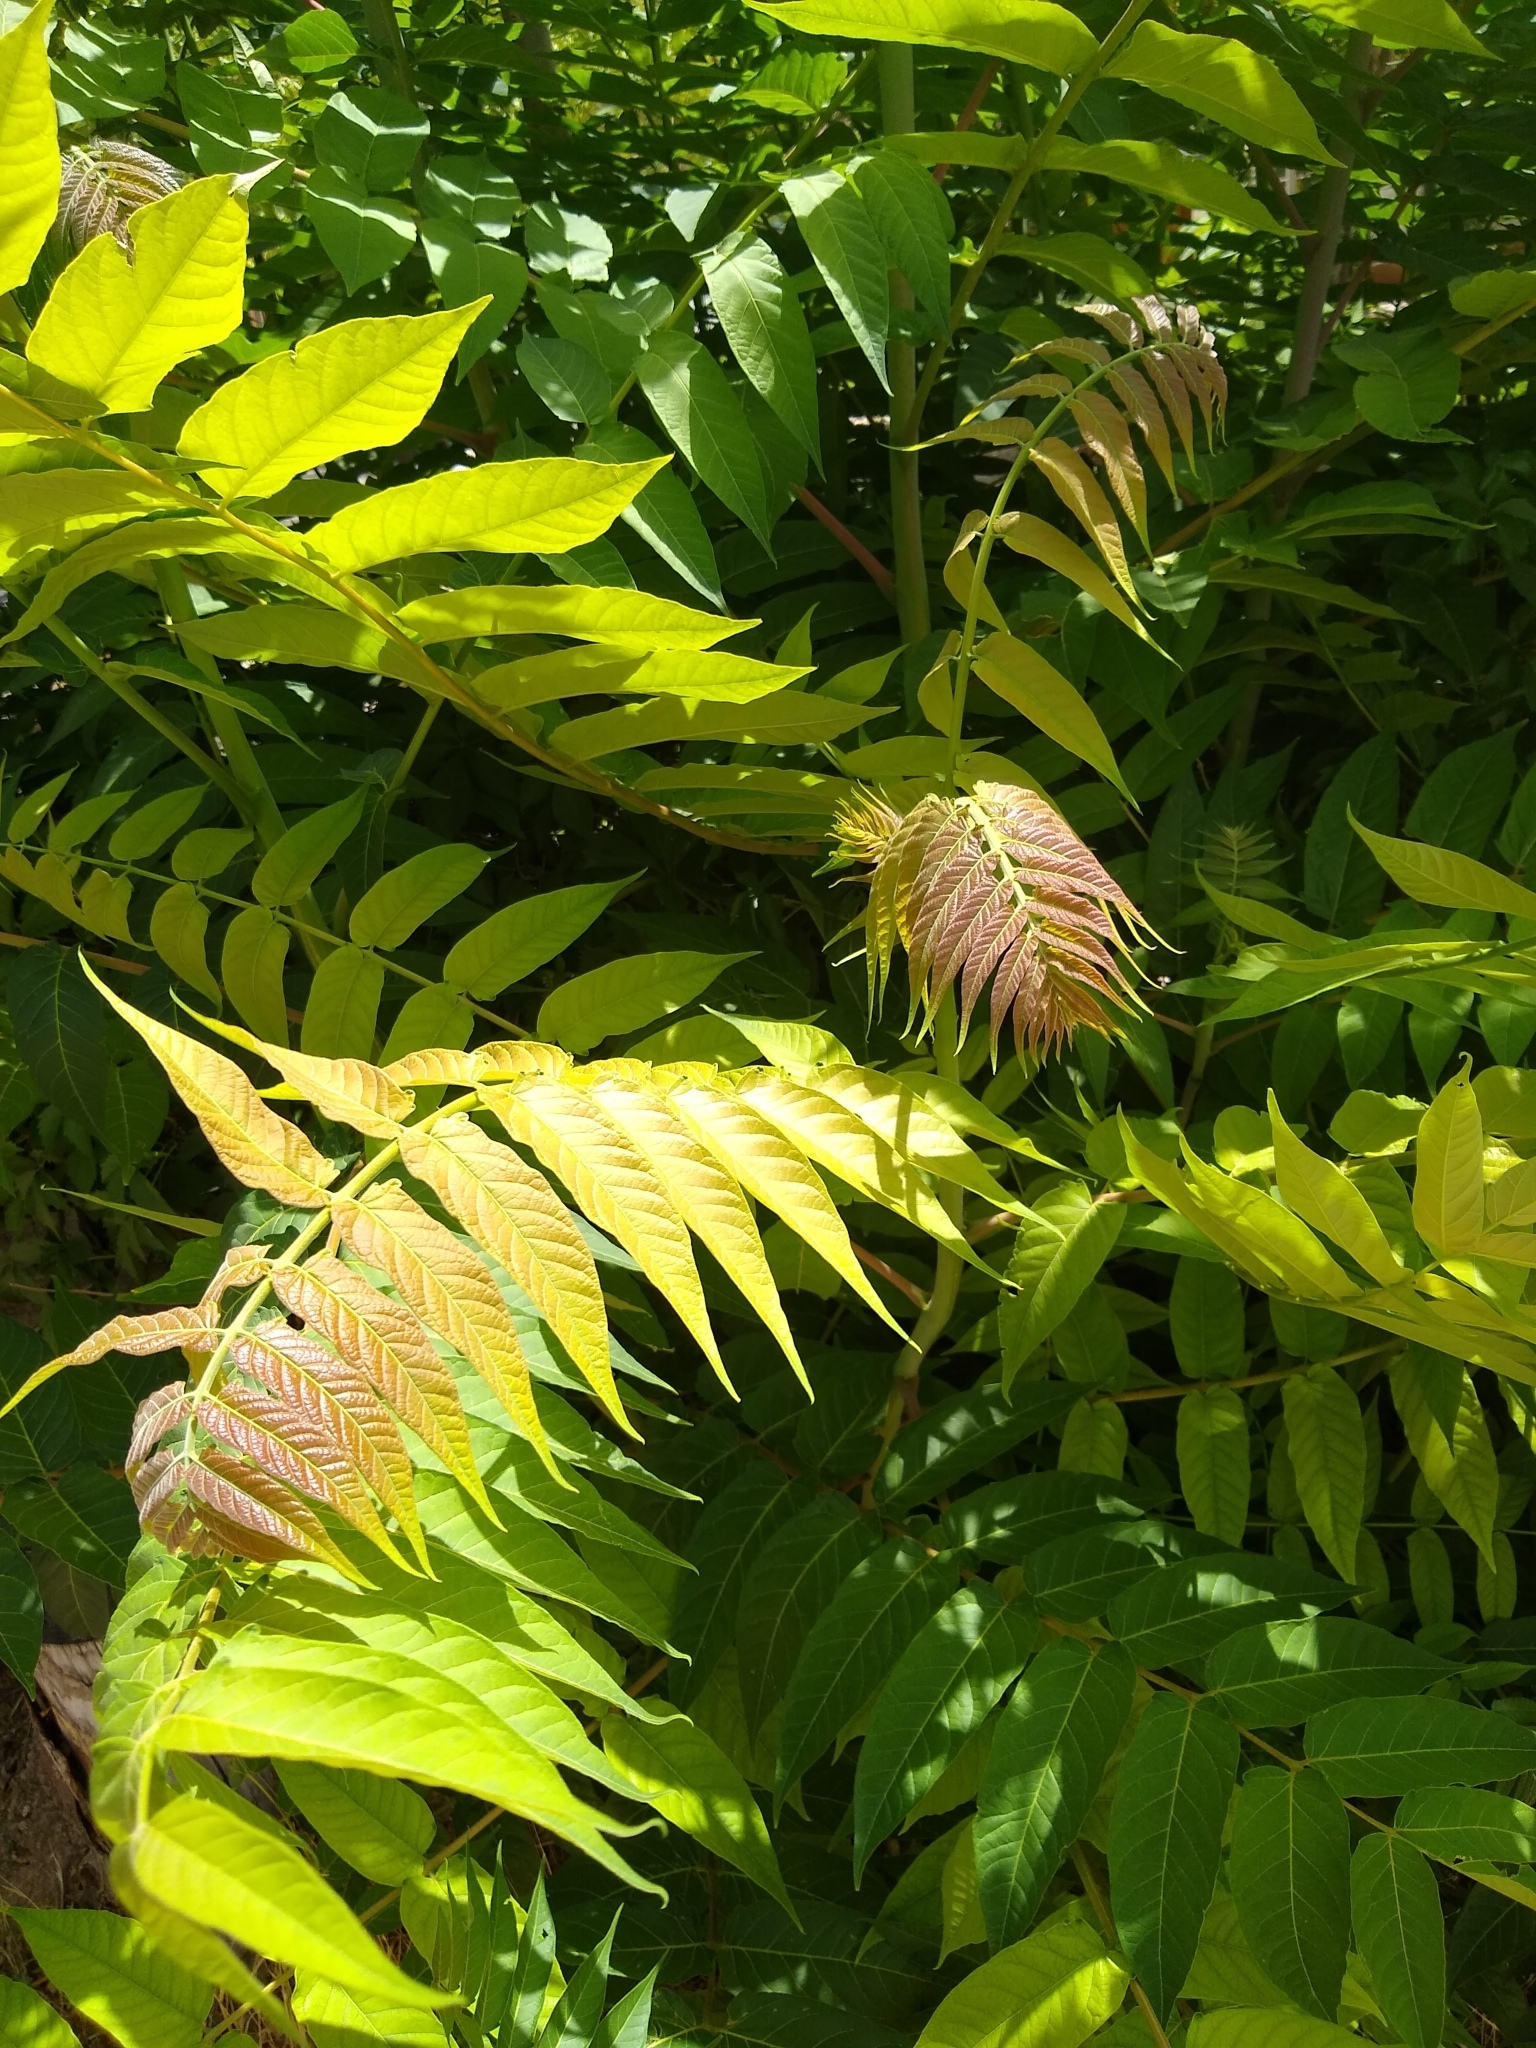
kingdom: Plantae
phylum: Tracheophyta
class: Magnoliopsida
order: Sapindales
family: Simaroubaceae
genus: Ailanthus
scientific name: Ailanthus altissima
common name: Tree-of-heaven
